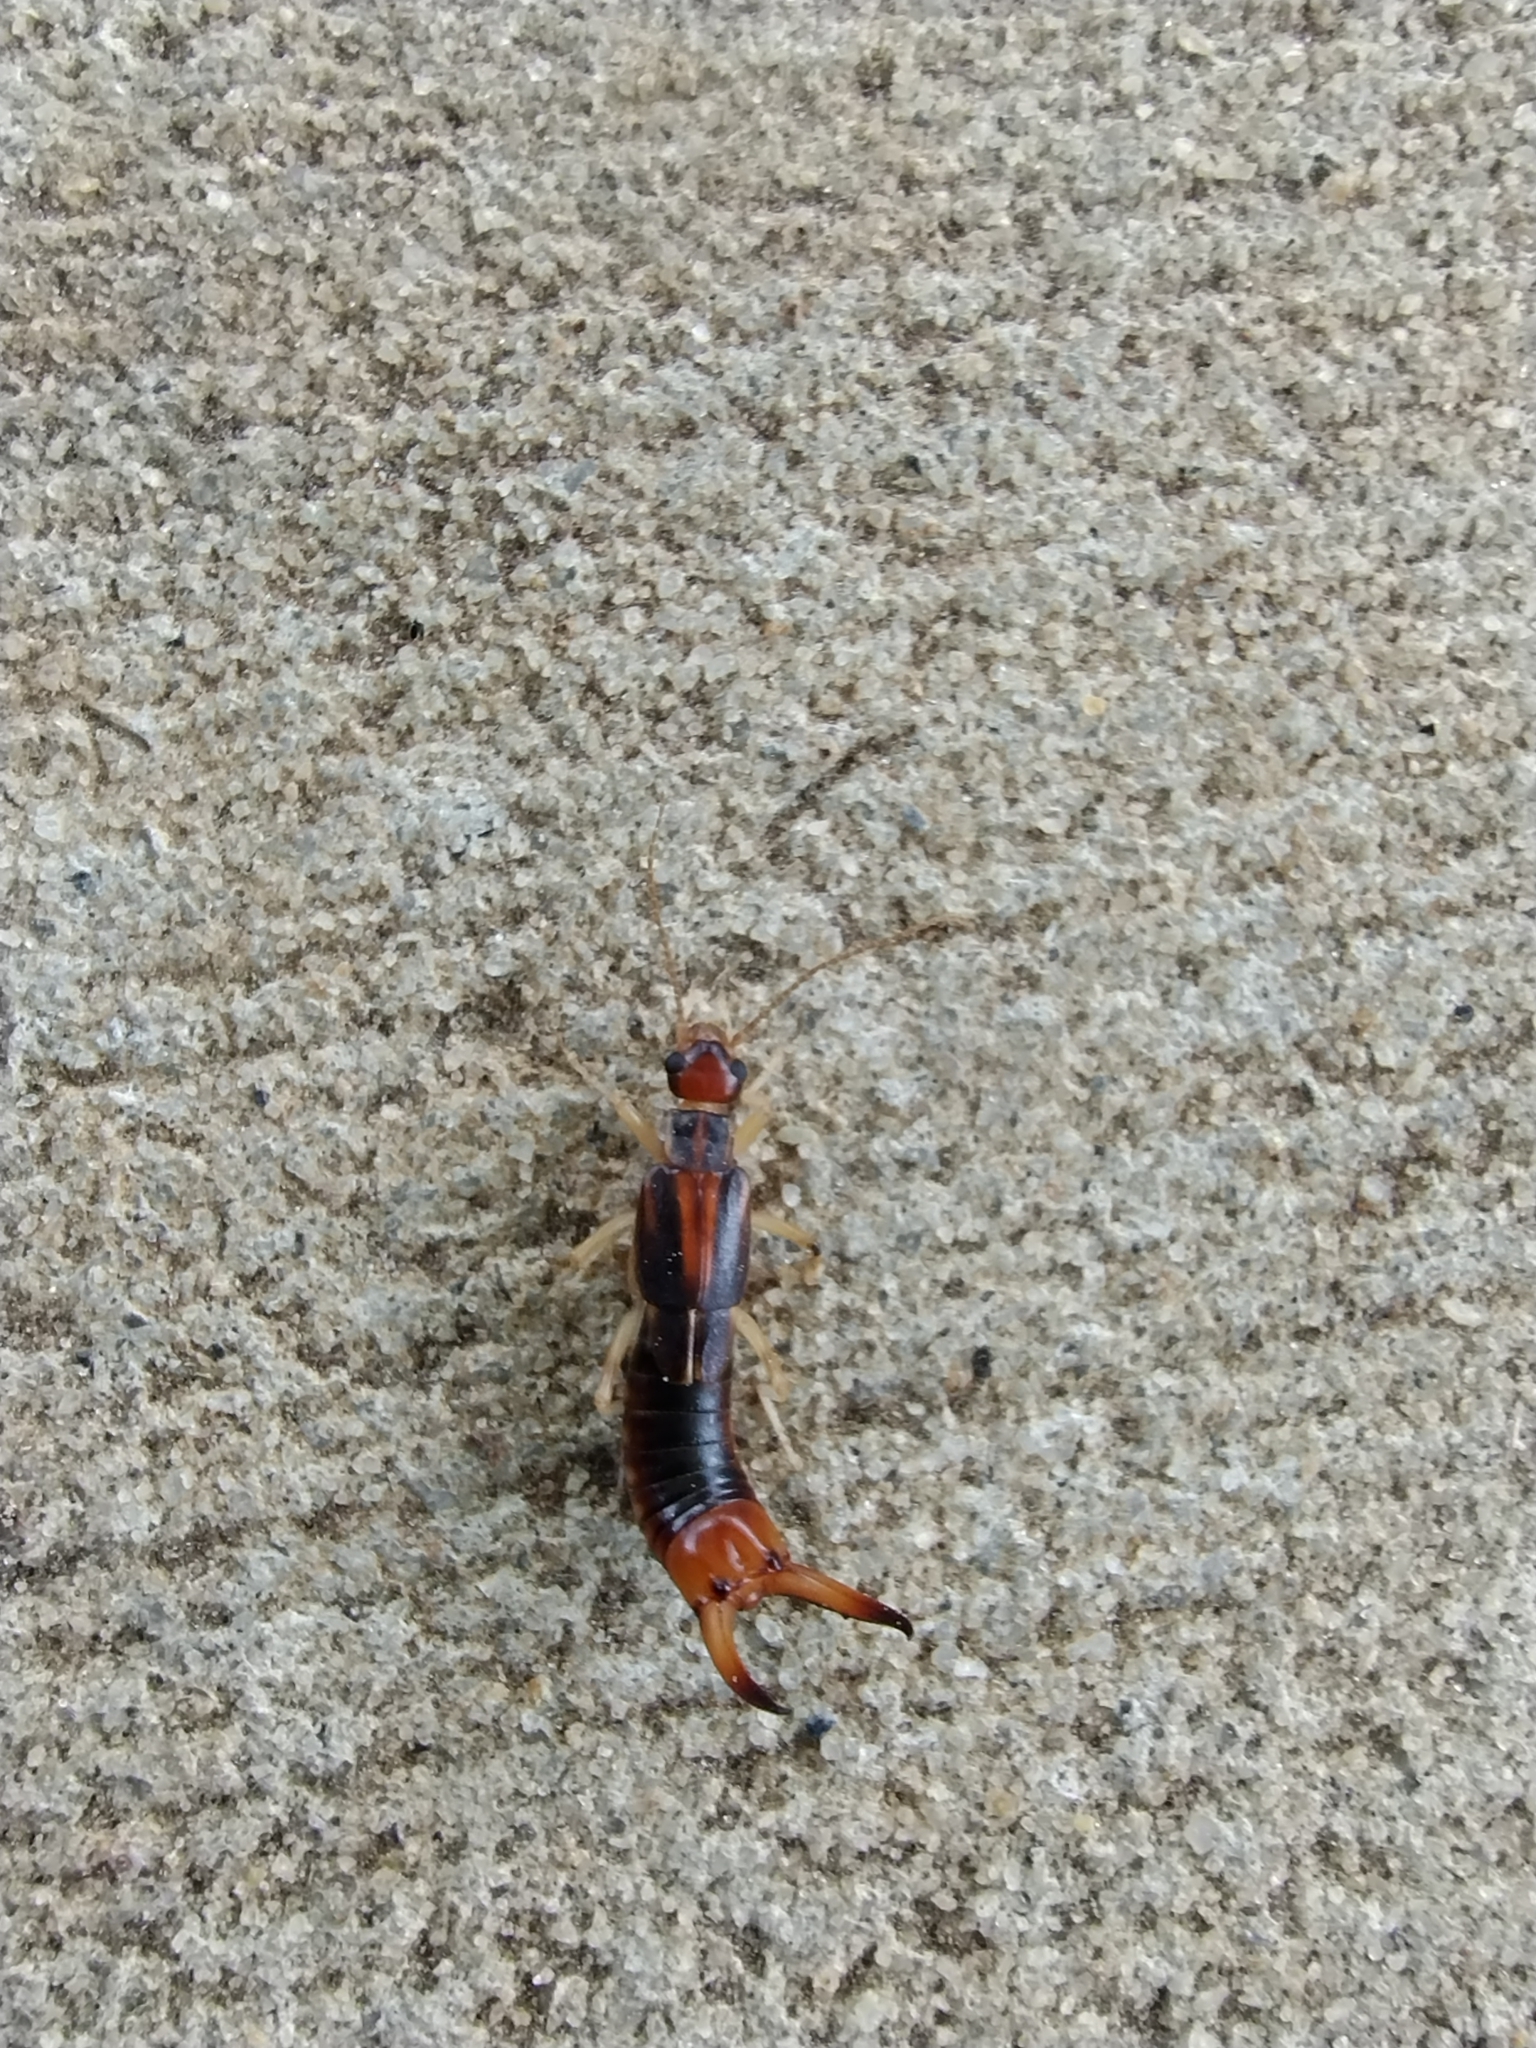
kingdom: Animalia
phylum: Arthropoda
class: Insecta
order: Dermaptera
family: Labiduridae
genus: Labidura
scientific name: Labidura riparia
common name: Striped earwig
